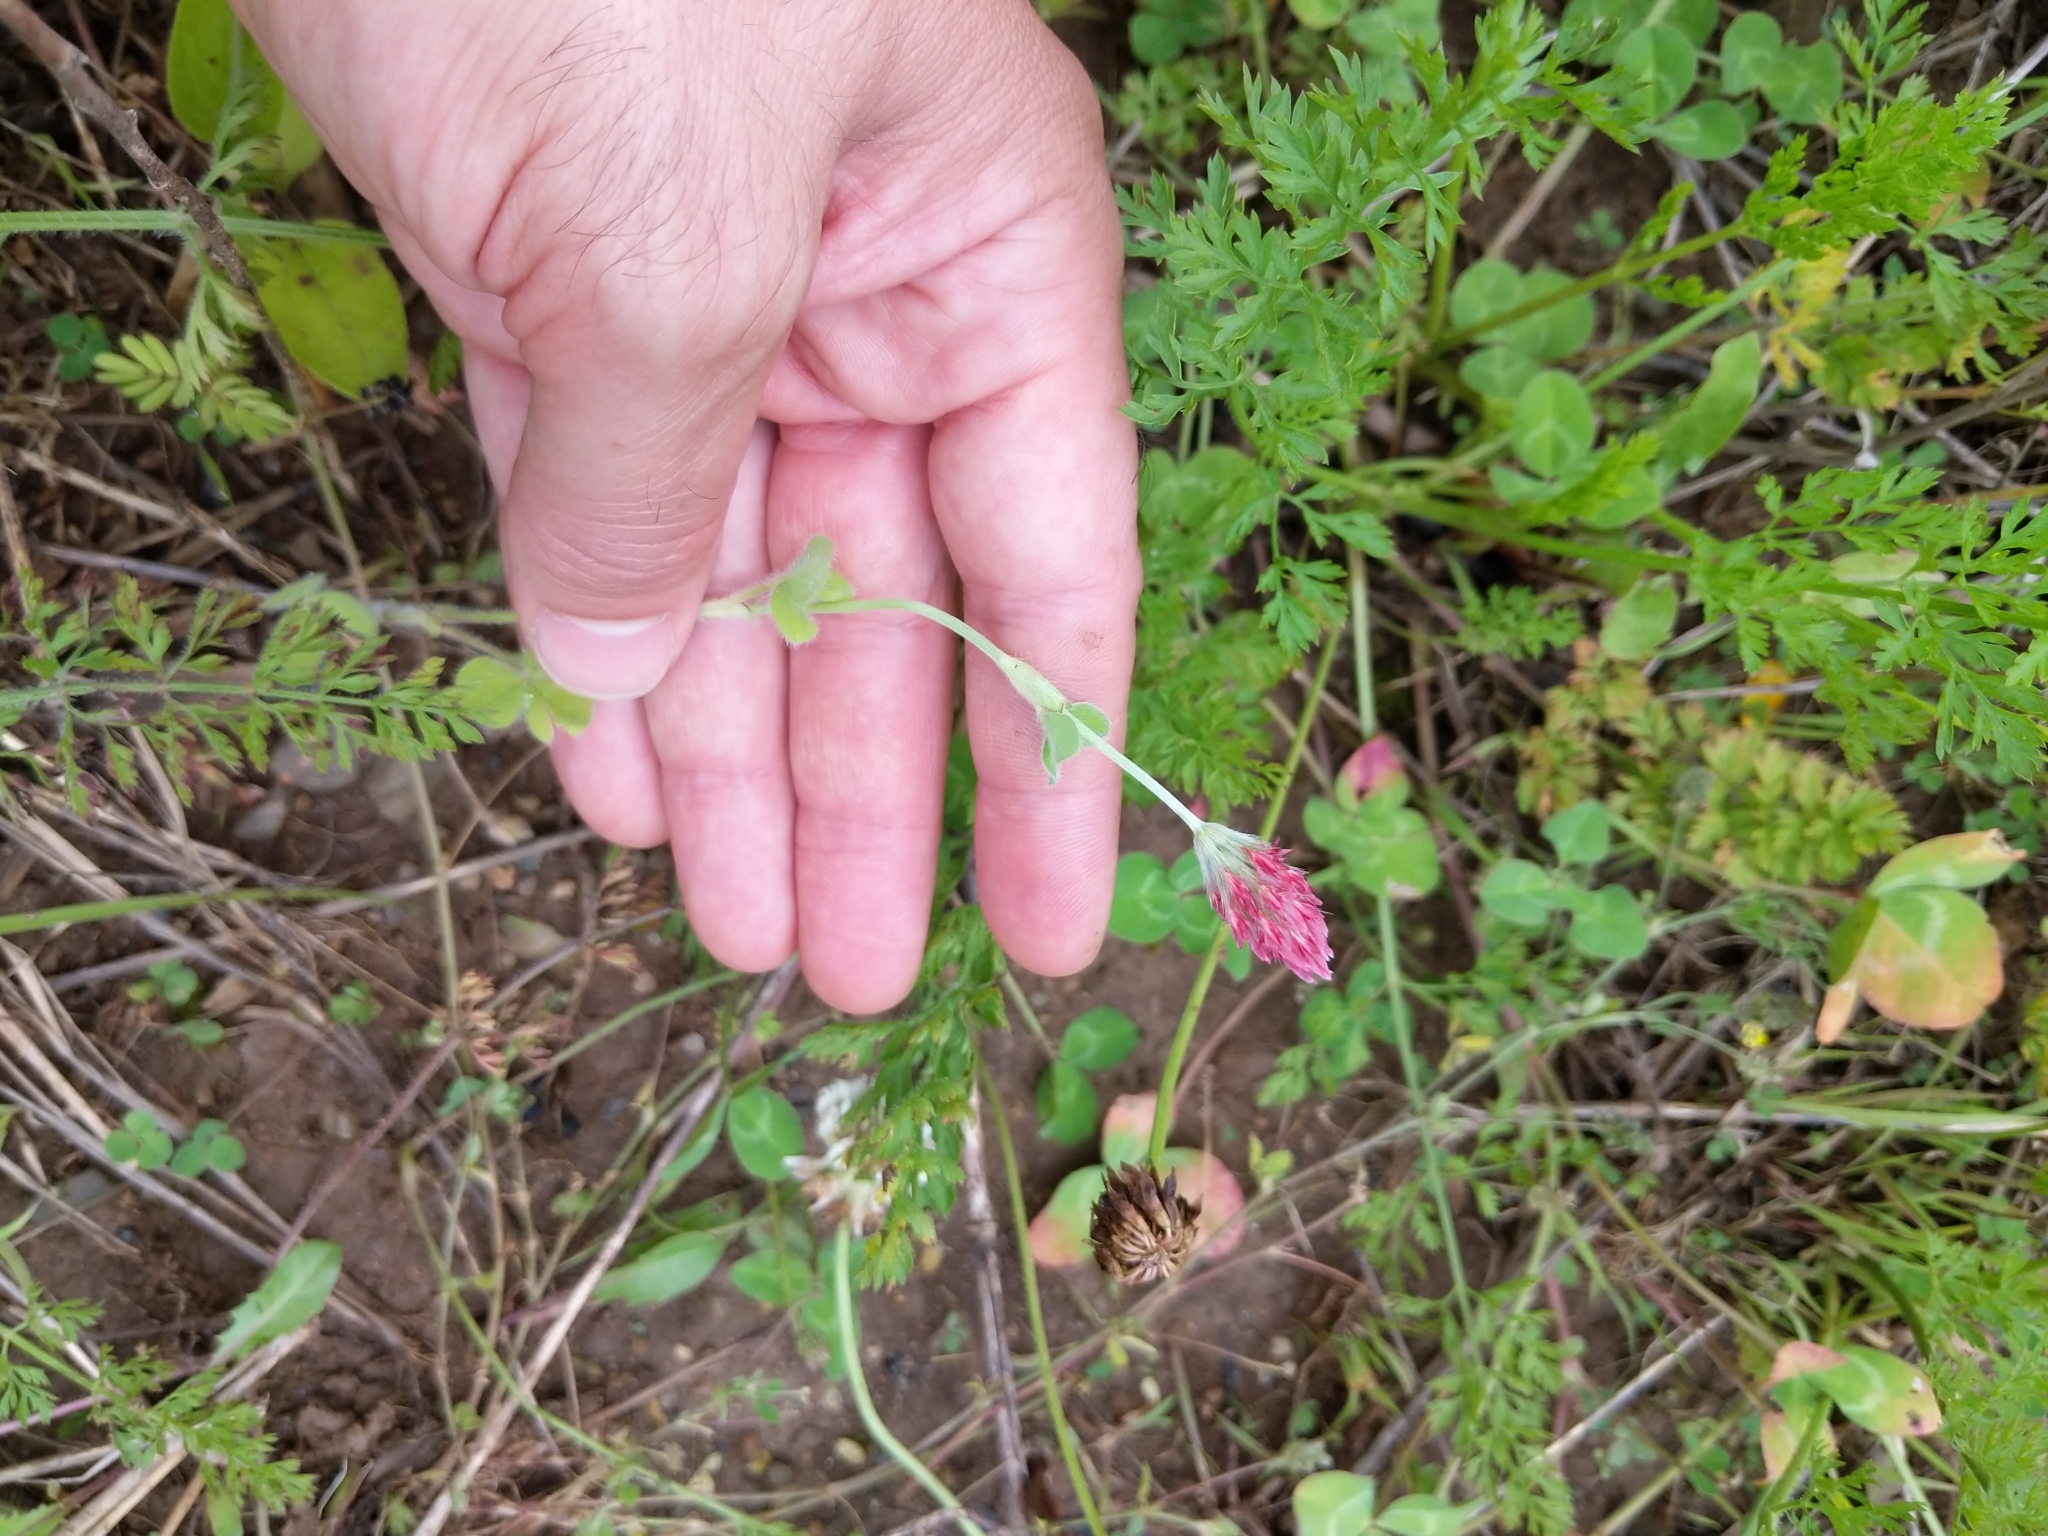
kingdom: Plantae
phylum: Tracheophyta
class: Magnoliopsida
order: Fabales
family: Fabaceae
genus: Trifolium
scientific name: Trifolium incarnatum
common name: Crimson clover
